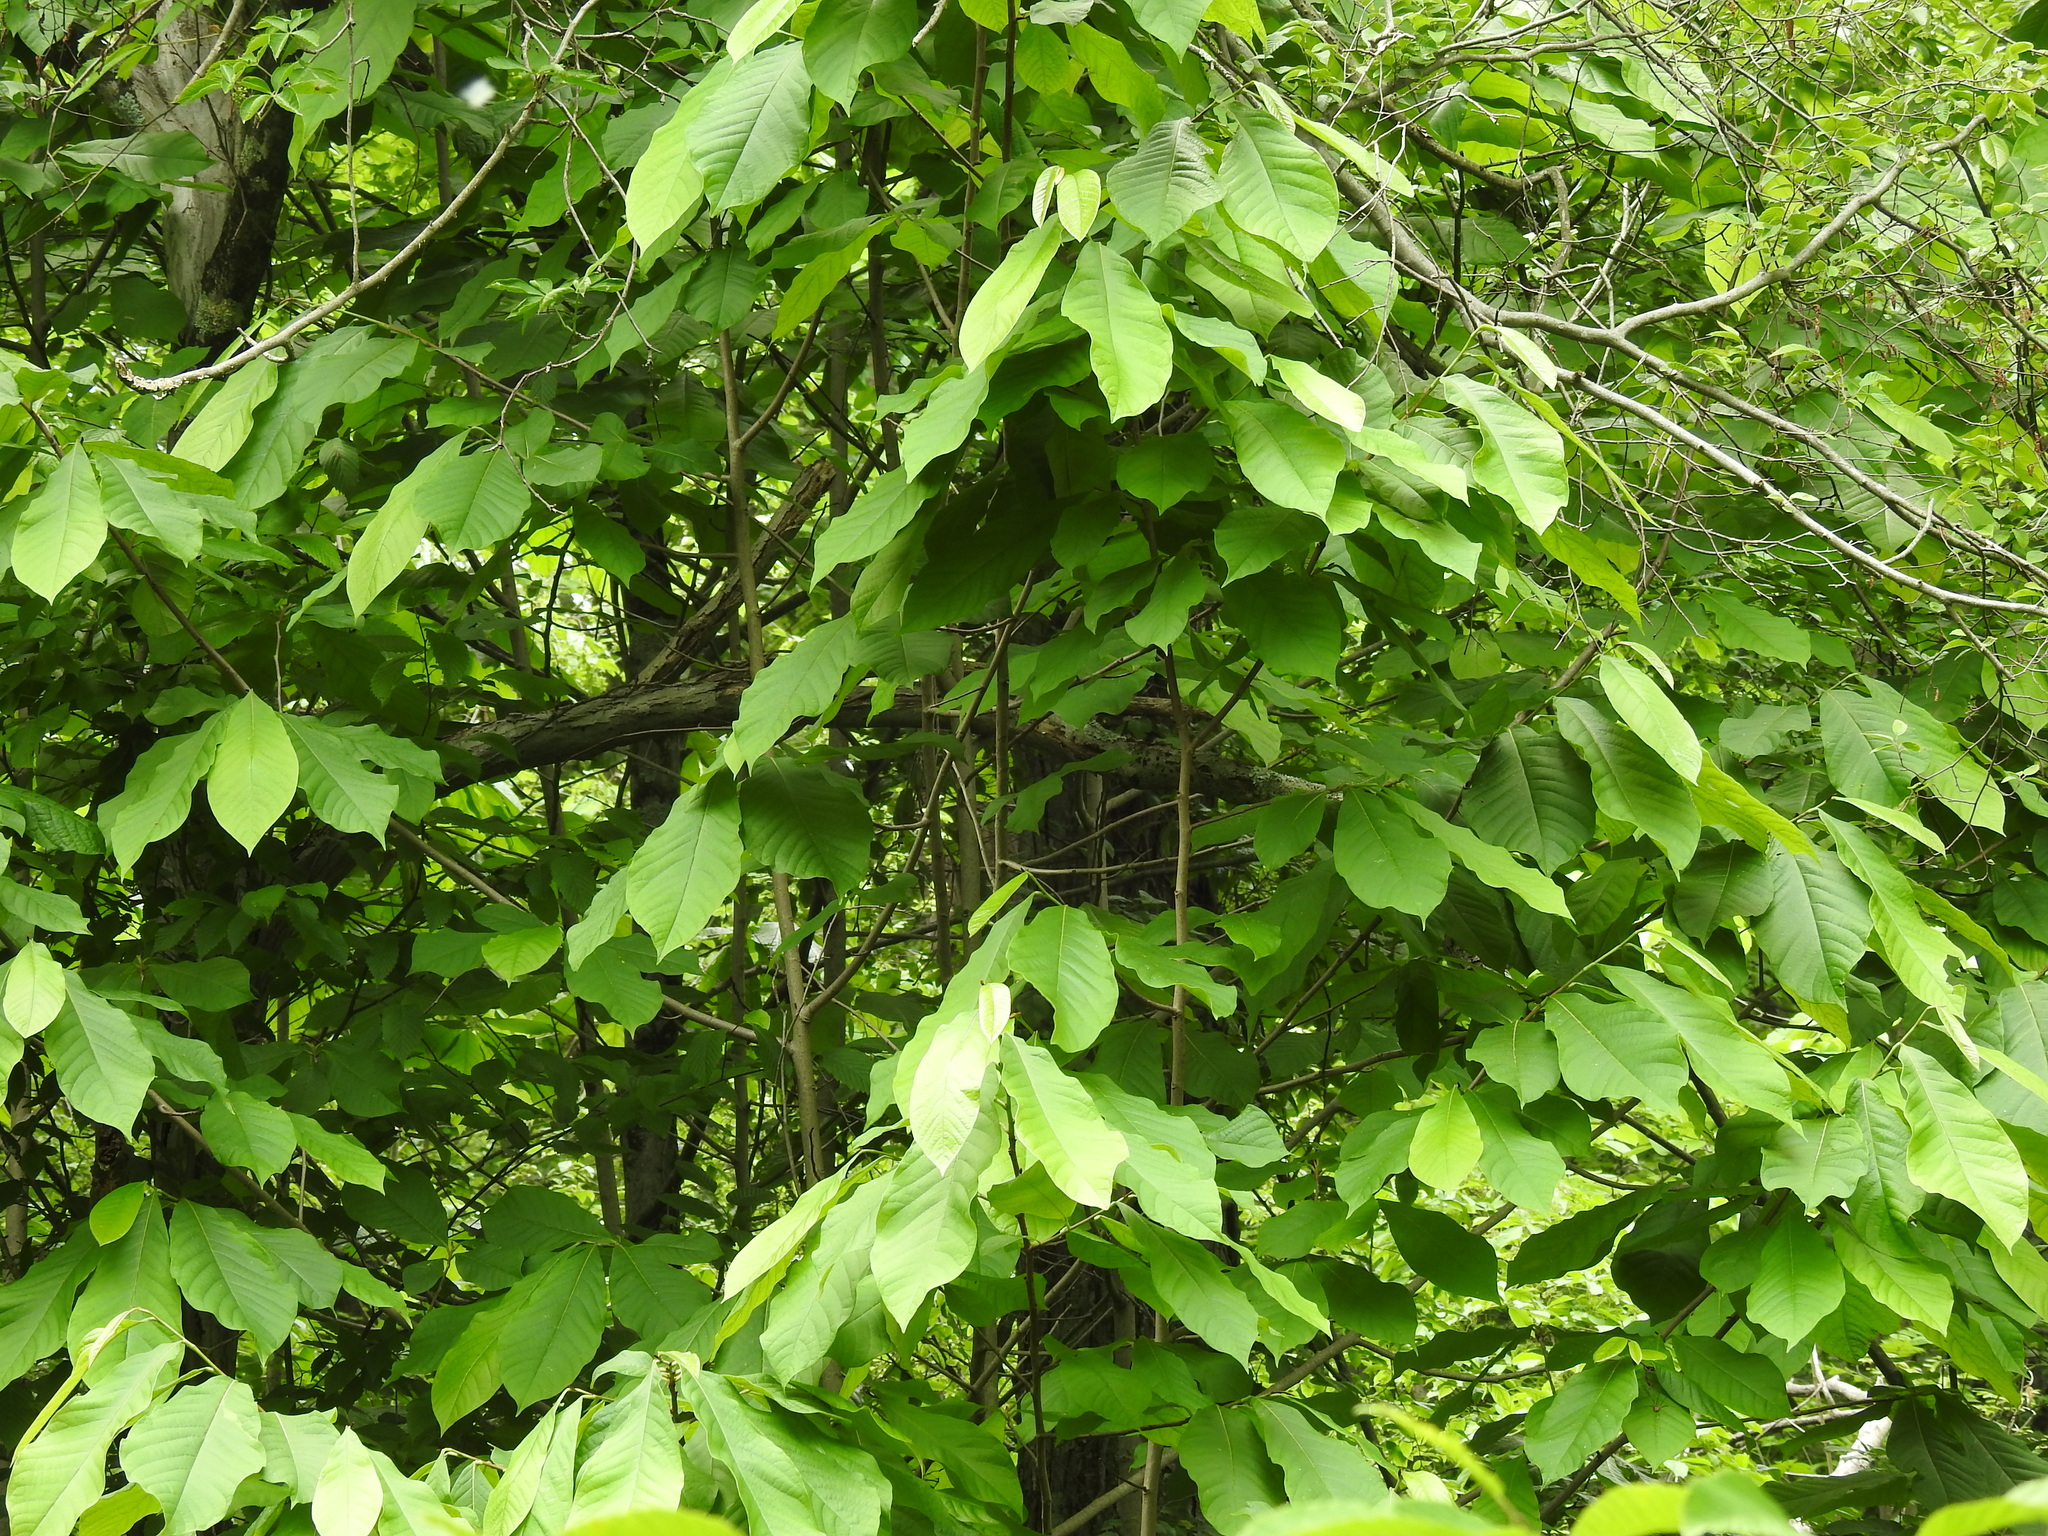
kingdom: Plantae
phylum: Tracheophyta
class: Magnoliopsida
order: Magnoliales
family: Annonaceae
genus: Asimina
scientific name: Asimina triloba
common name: Dog-banana
